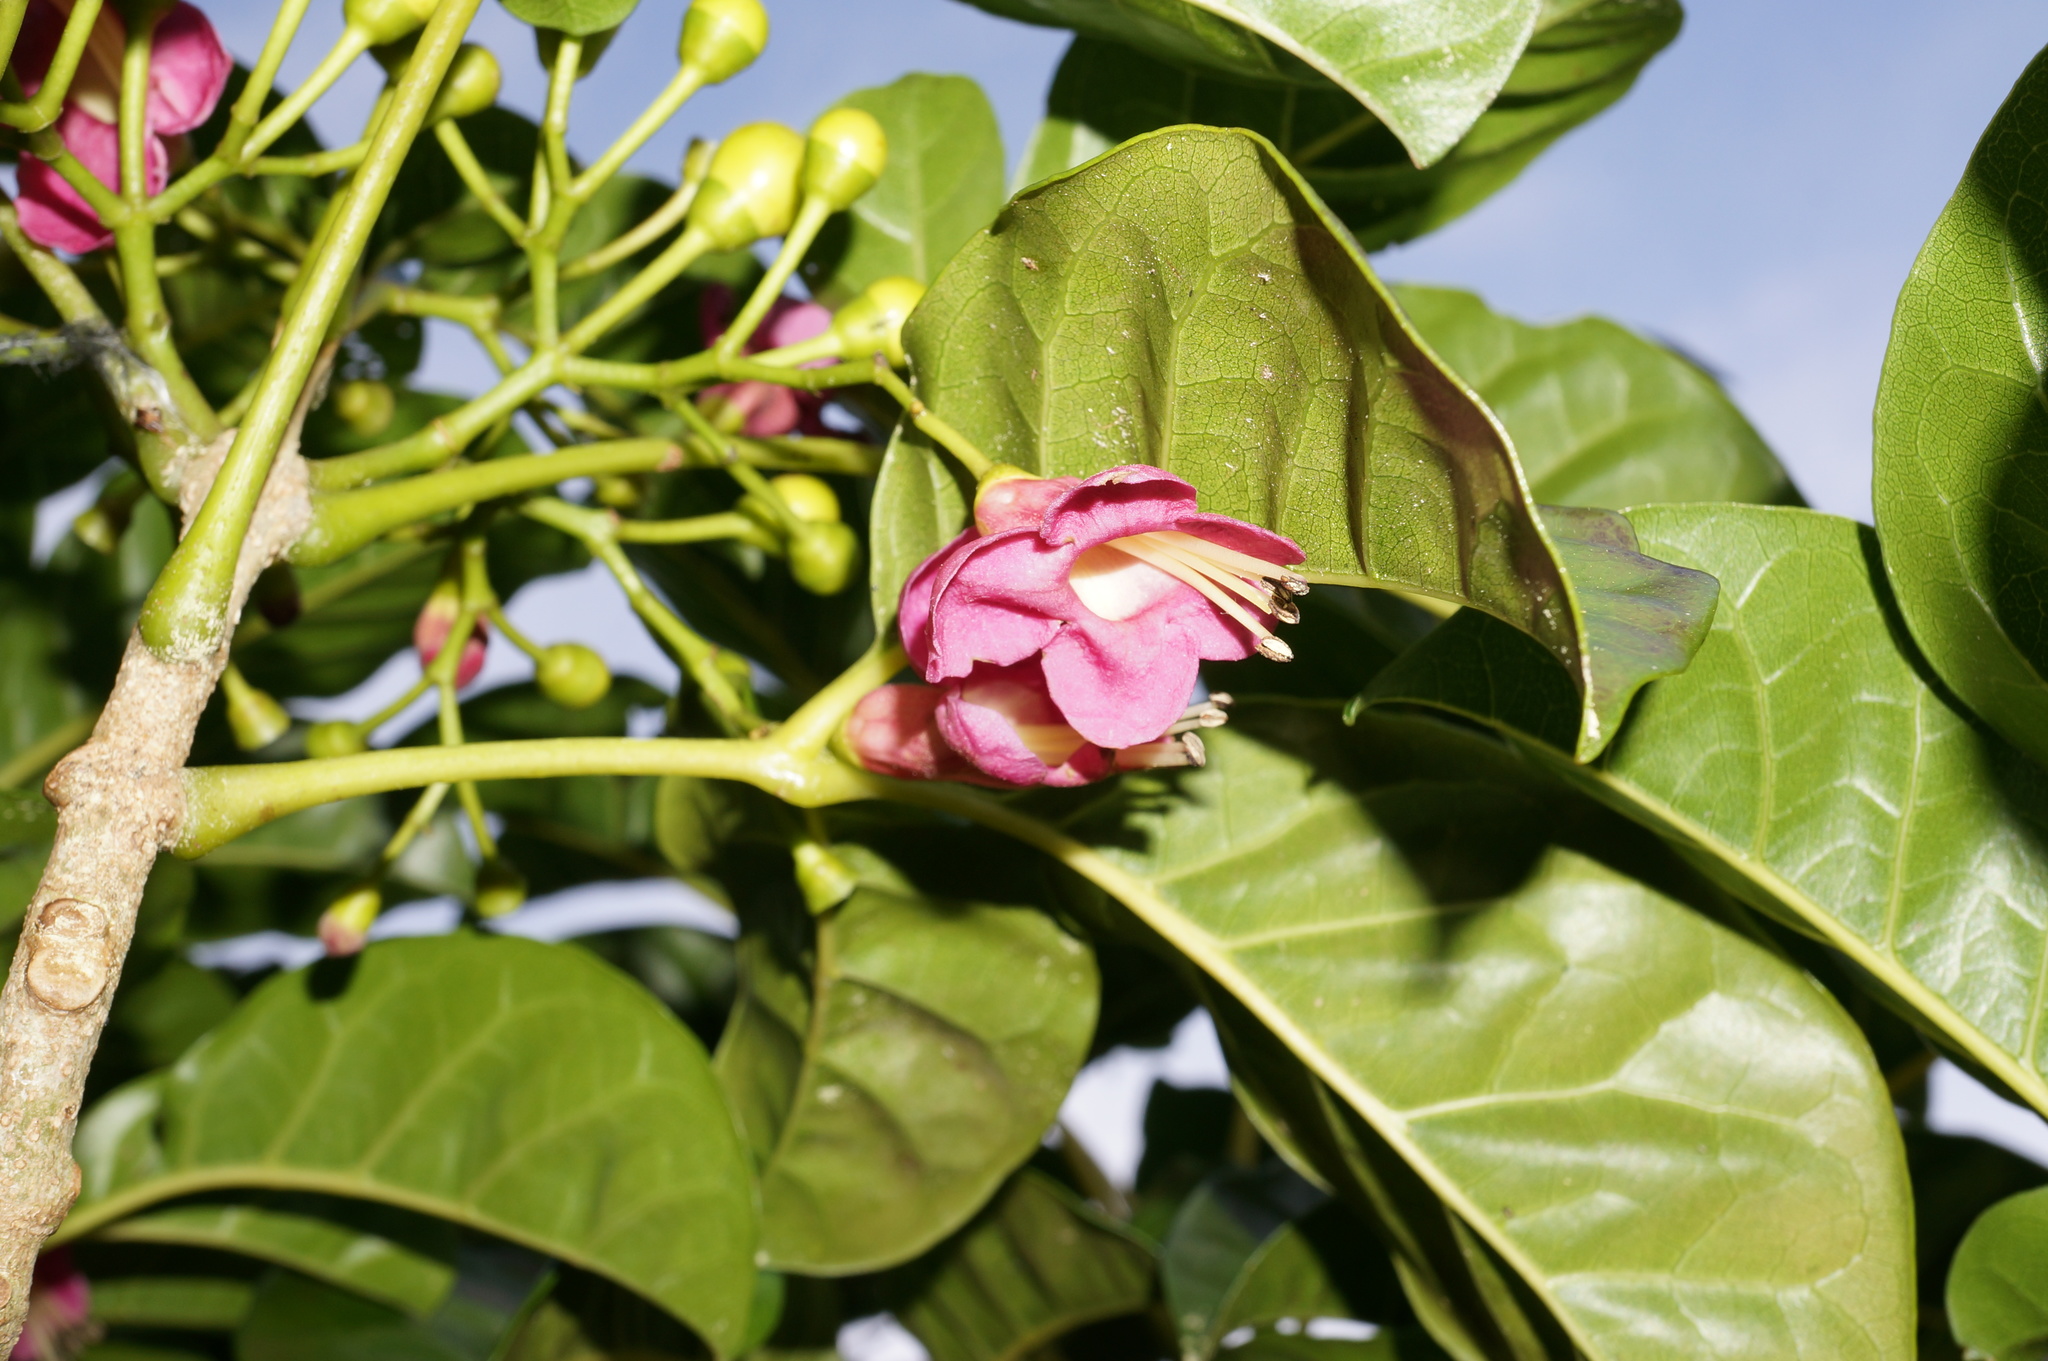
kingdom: Plantae
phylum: Tracheophyta
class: Magnoliopsida
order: Lamiales
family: Lamiaceae
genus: Vitex
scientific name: Vitex lucens
